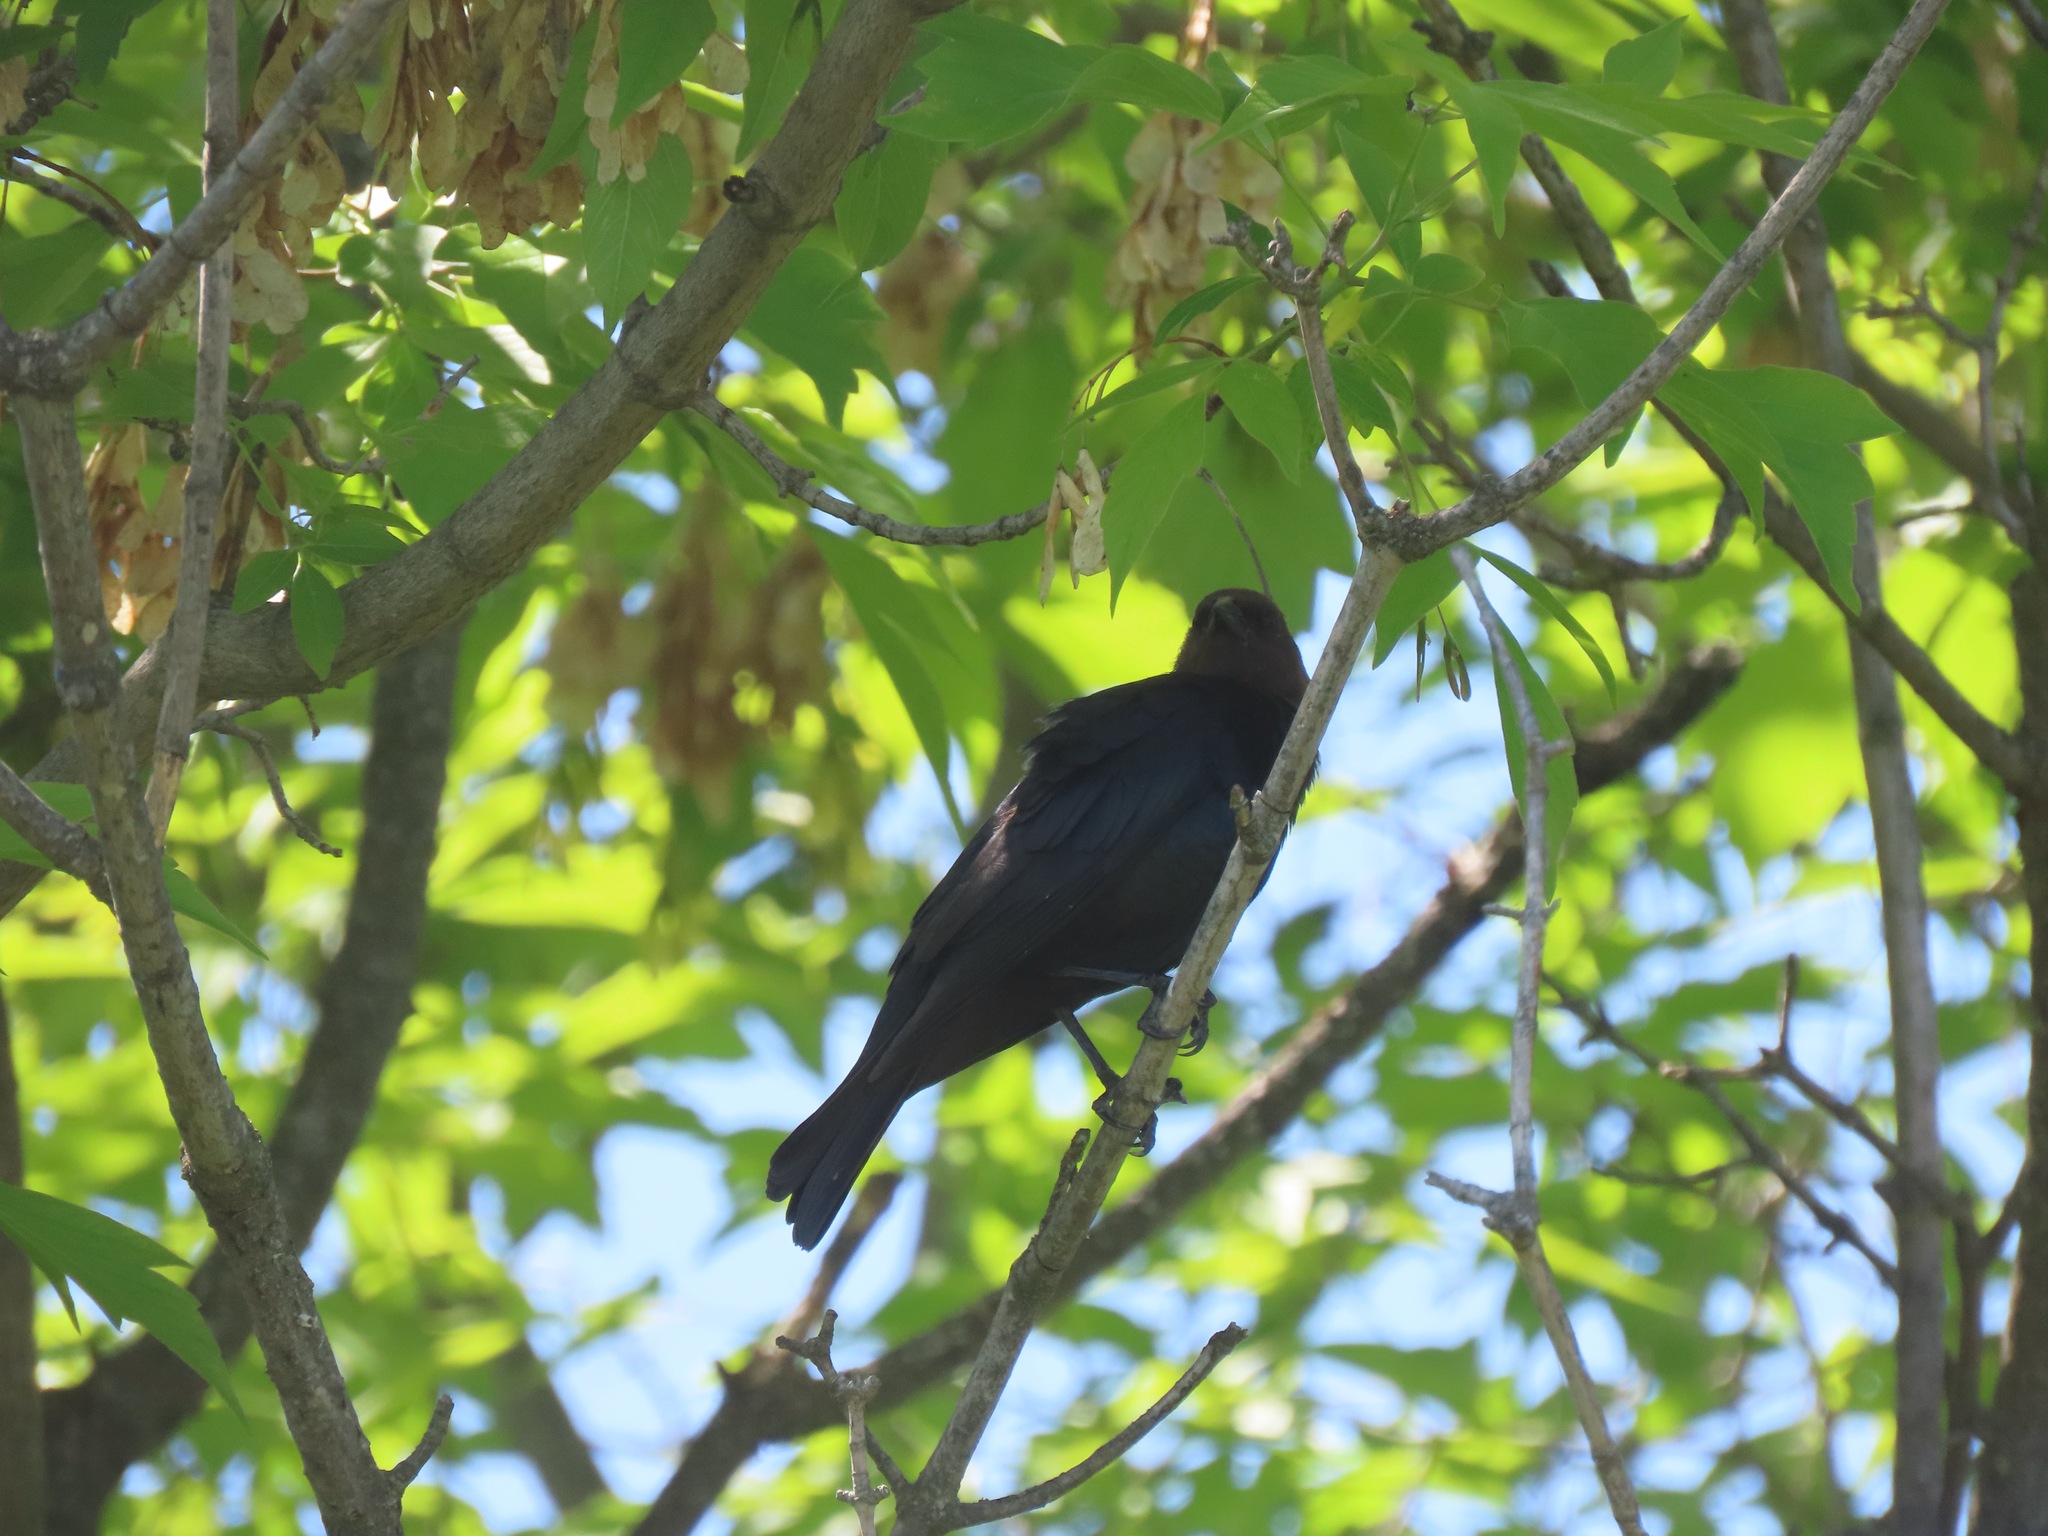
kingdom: Animalia
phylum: Chordata
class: Aves
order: Passeriformes
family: Icteridae
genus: Molothrus
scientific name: Molothrus ater
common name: Brown-headed cowbird
